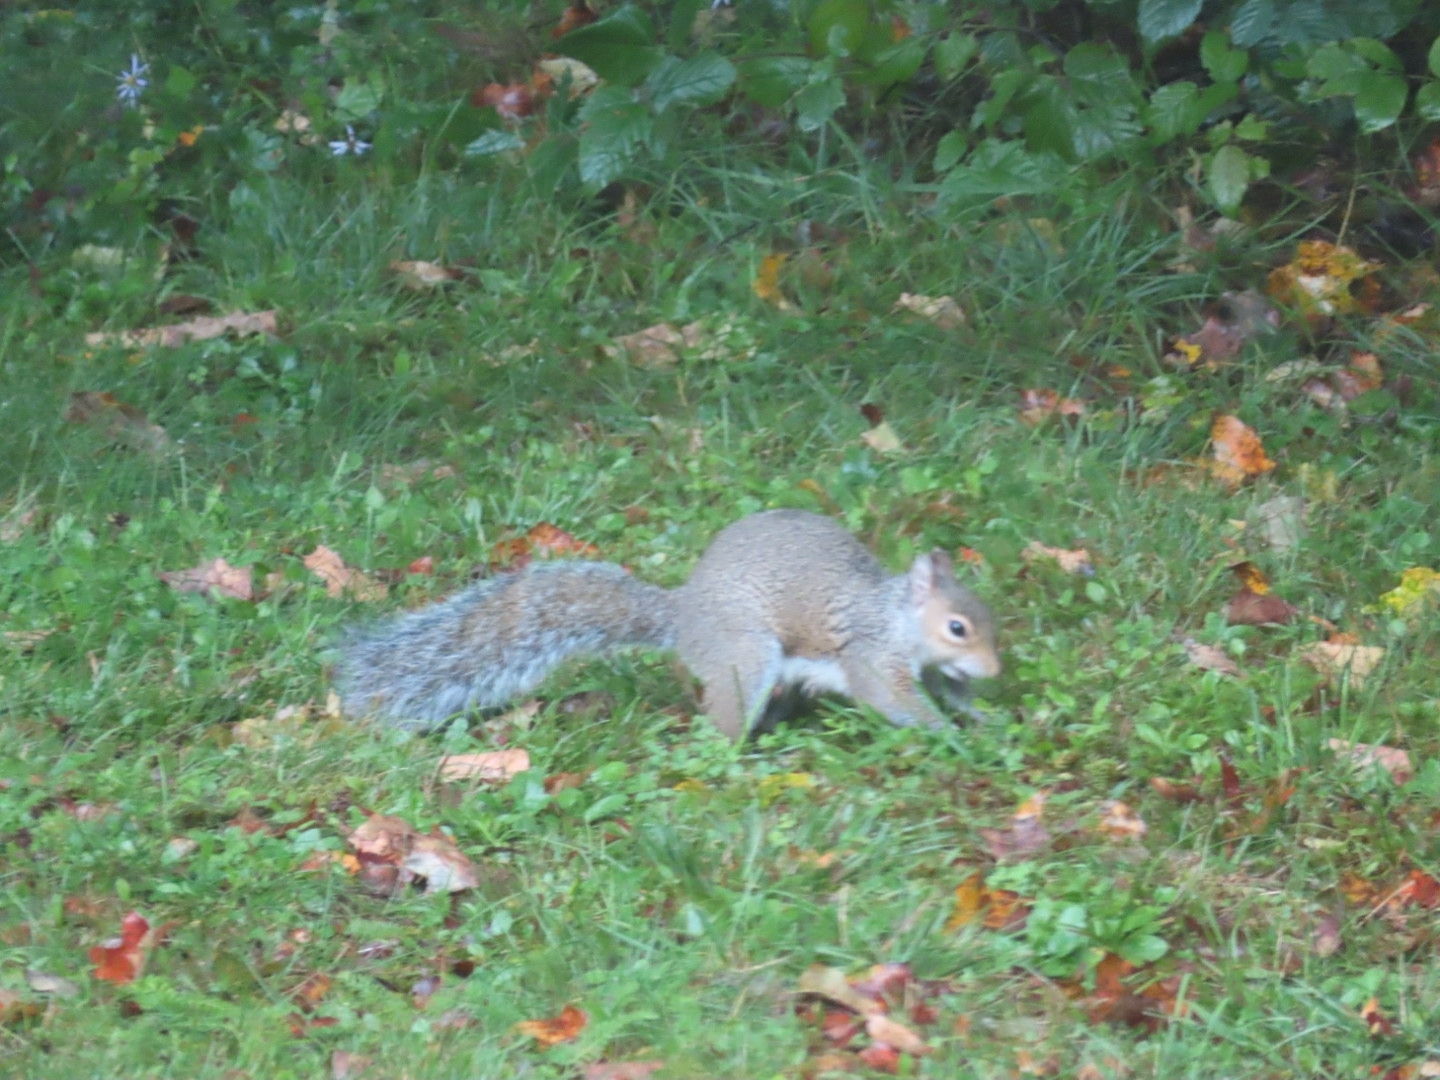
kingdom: Animalia
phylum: Chordata
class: Mammalia
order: Rodentia
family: Sciuridae
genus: Sciurus
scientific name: Sciurus carolinensis
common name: Eastern gray squirrel
